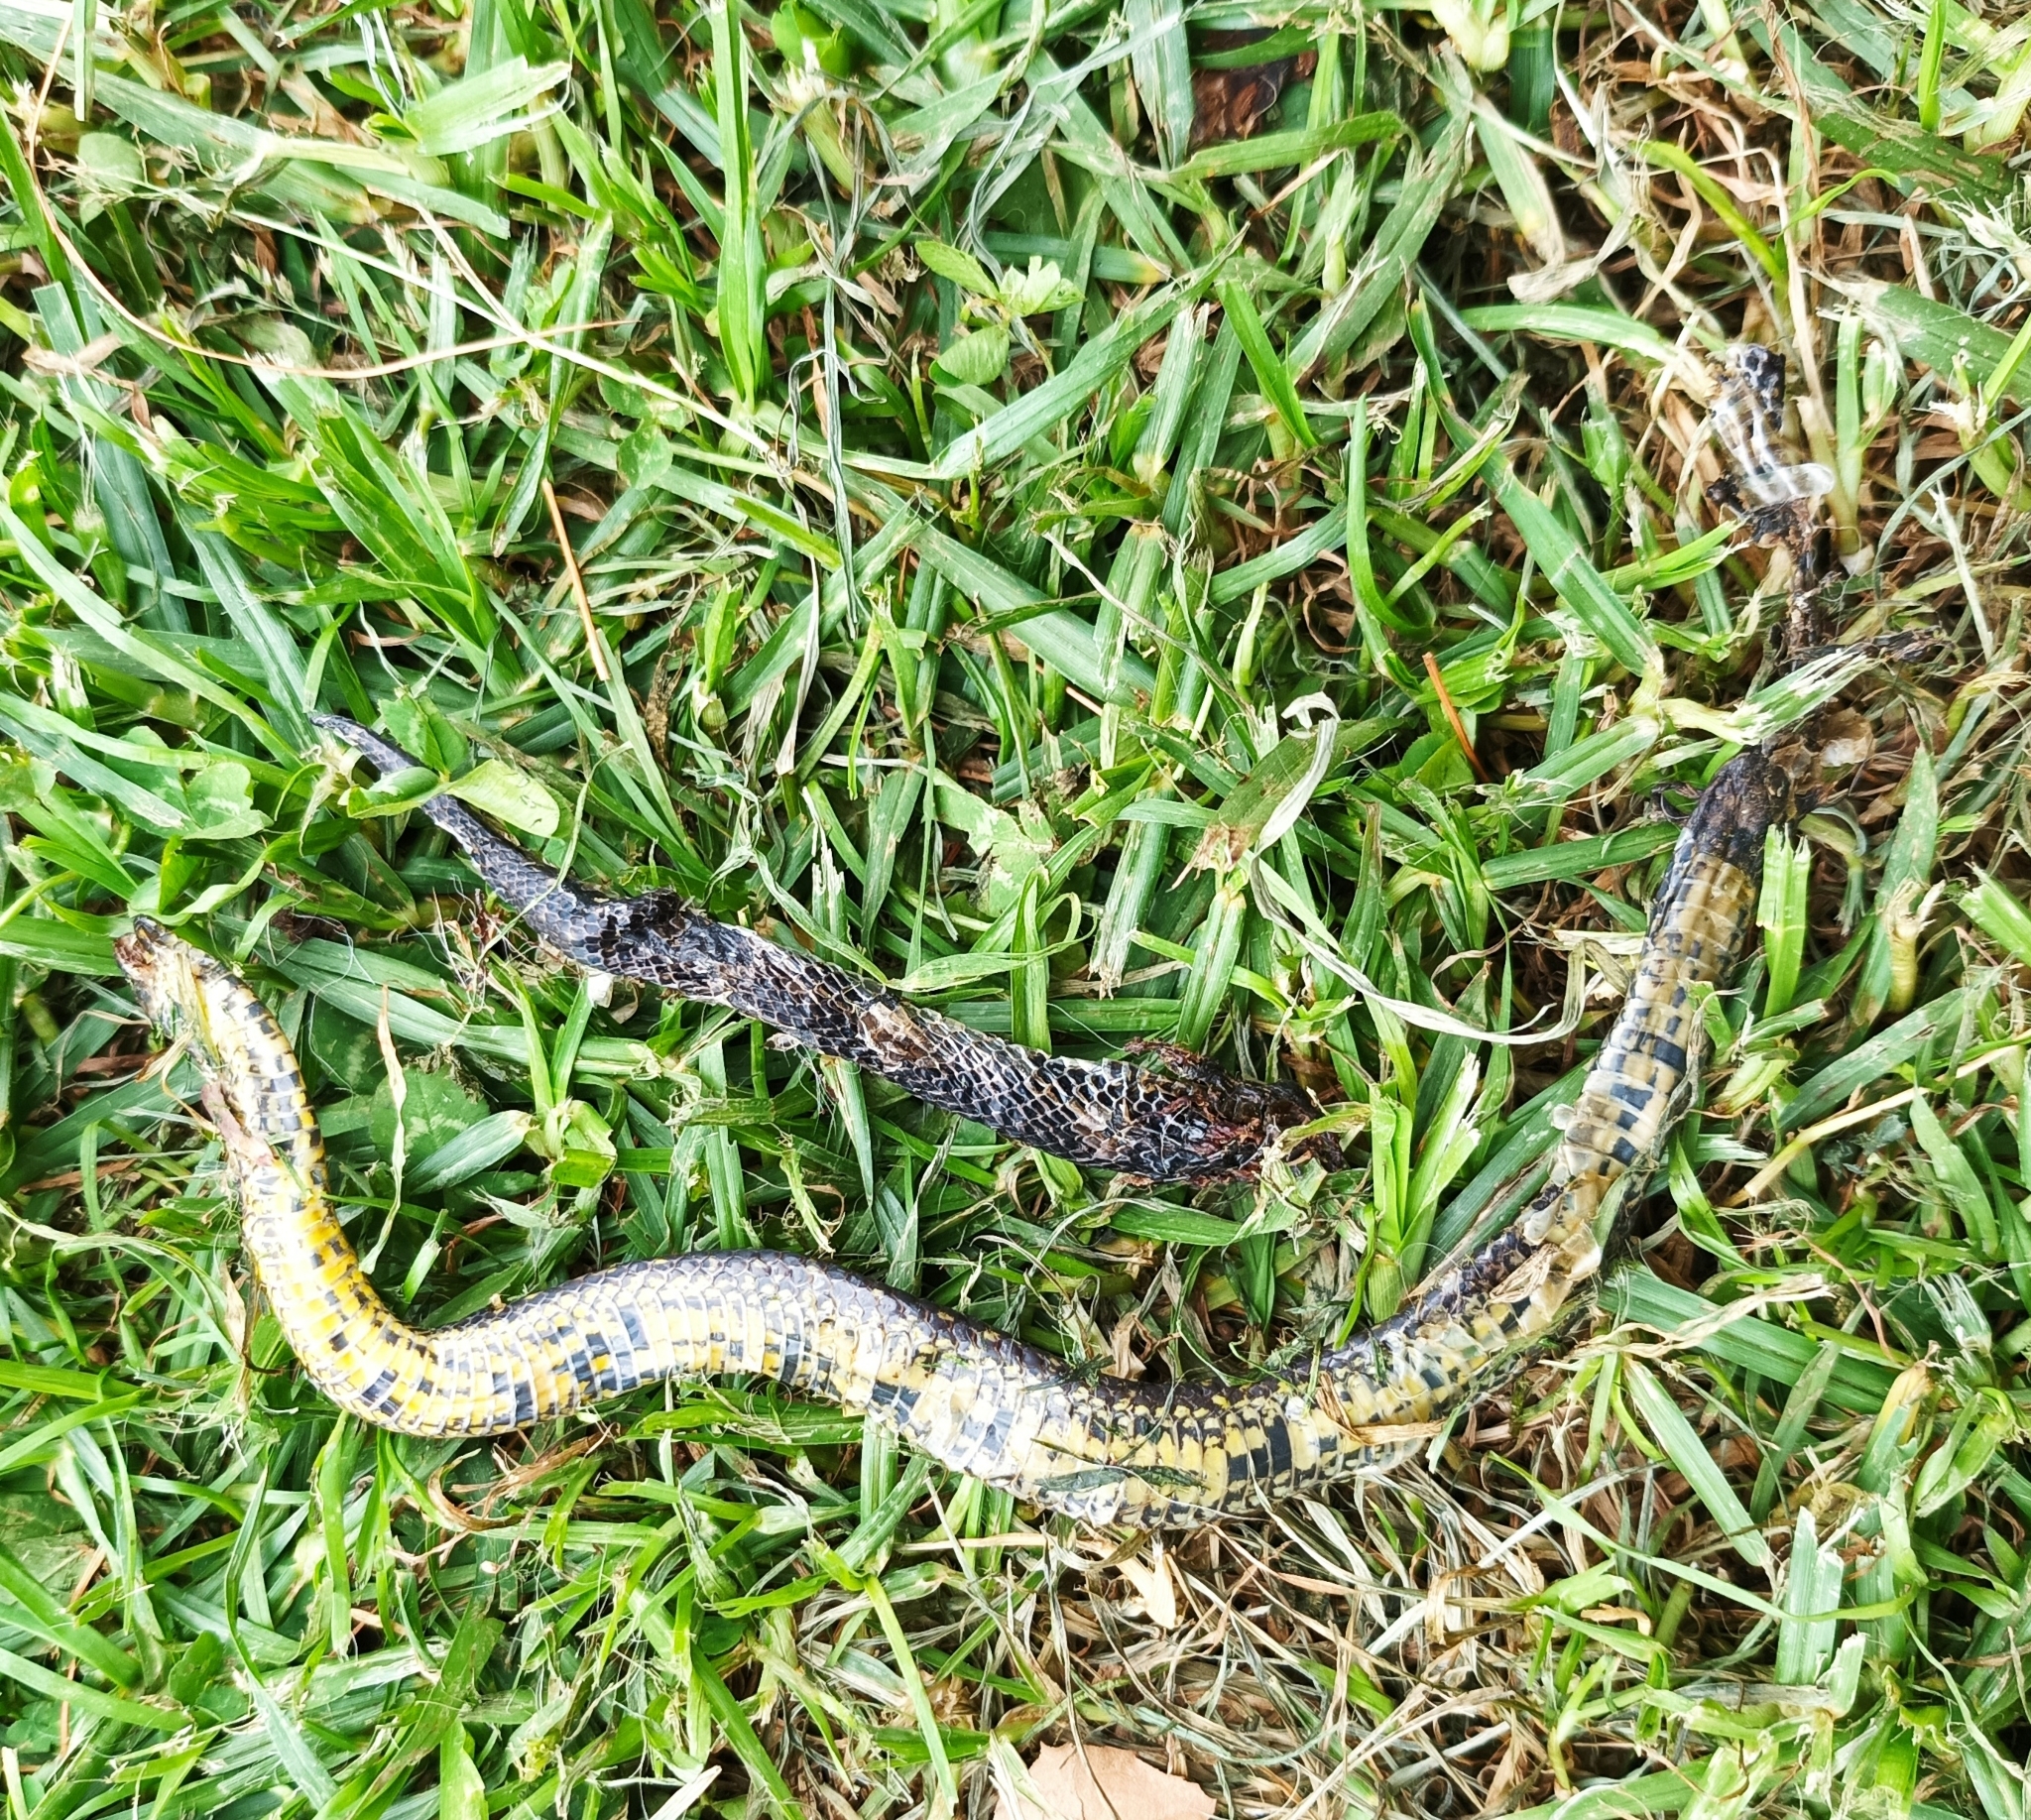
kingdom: Animalia
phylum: Chordata
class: Squamata
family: Colubridae
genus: Atractus
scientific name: Atractus crassicaudatus
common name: Thickhead ground snake
